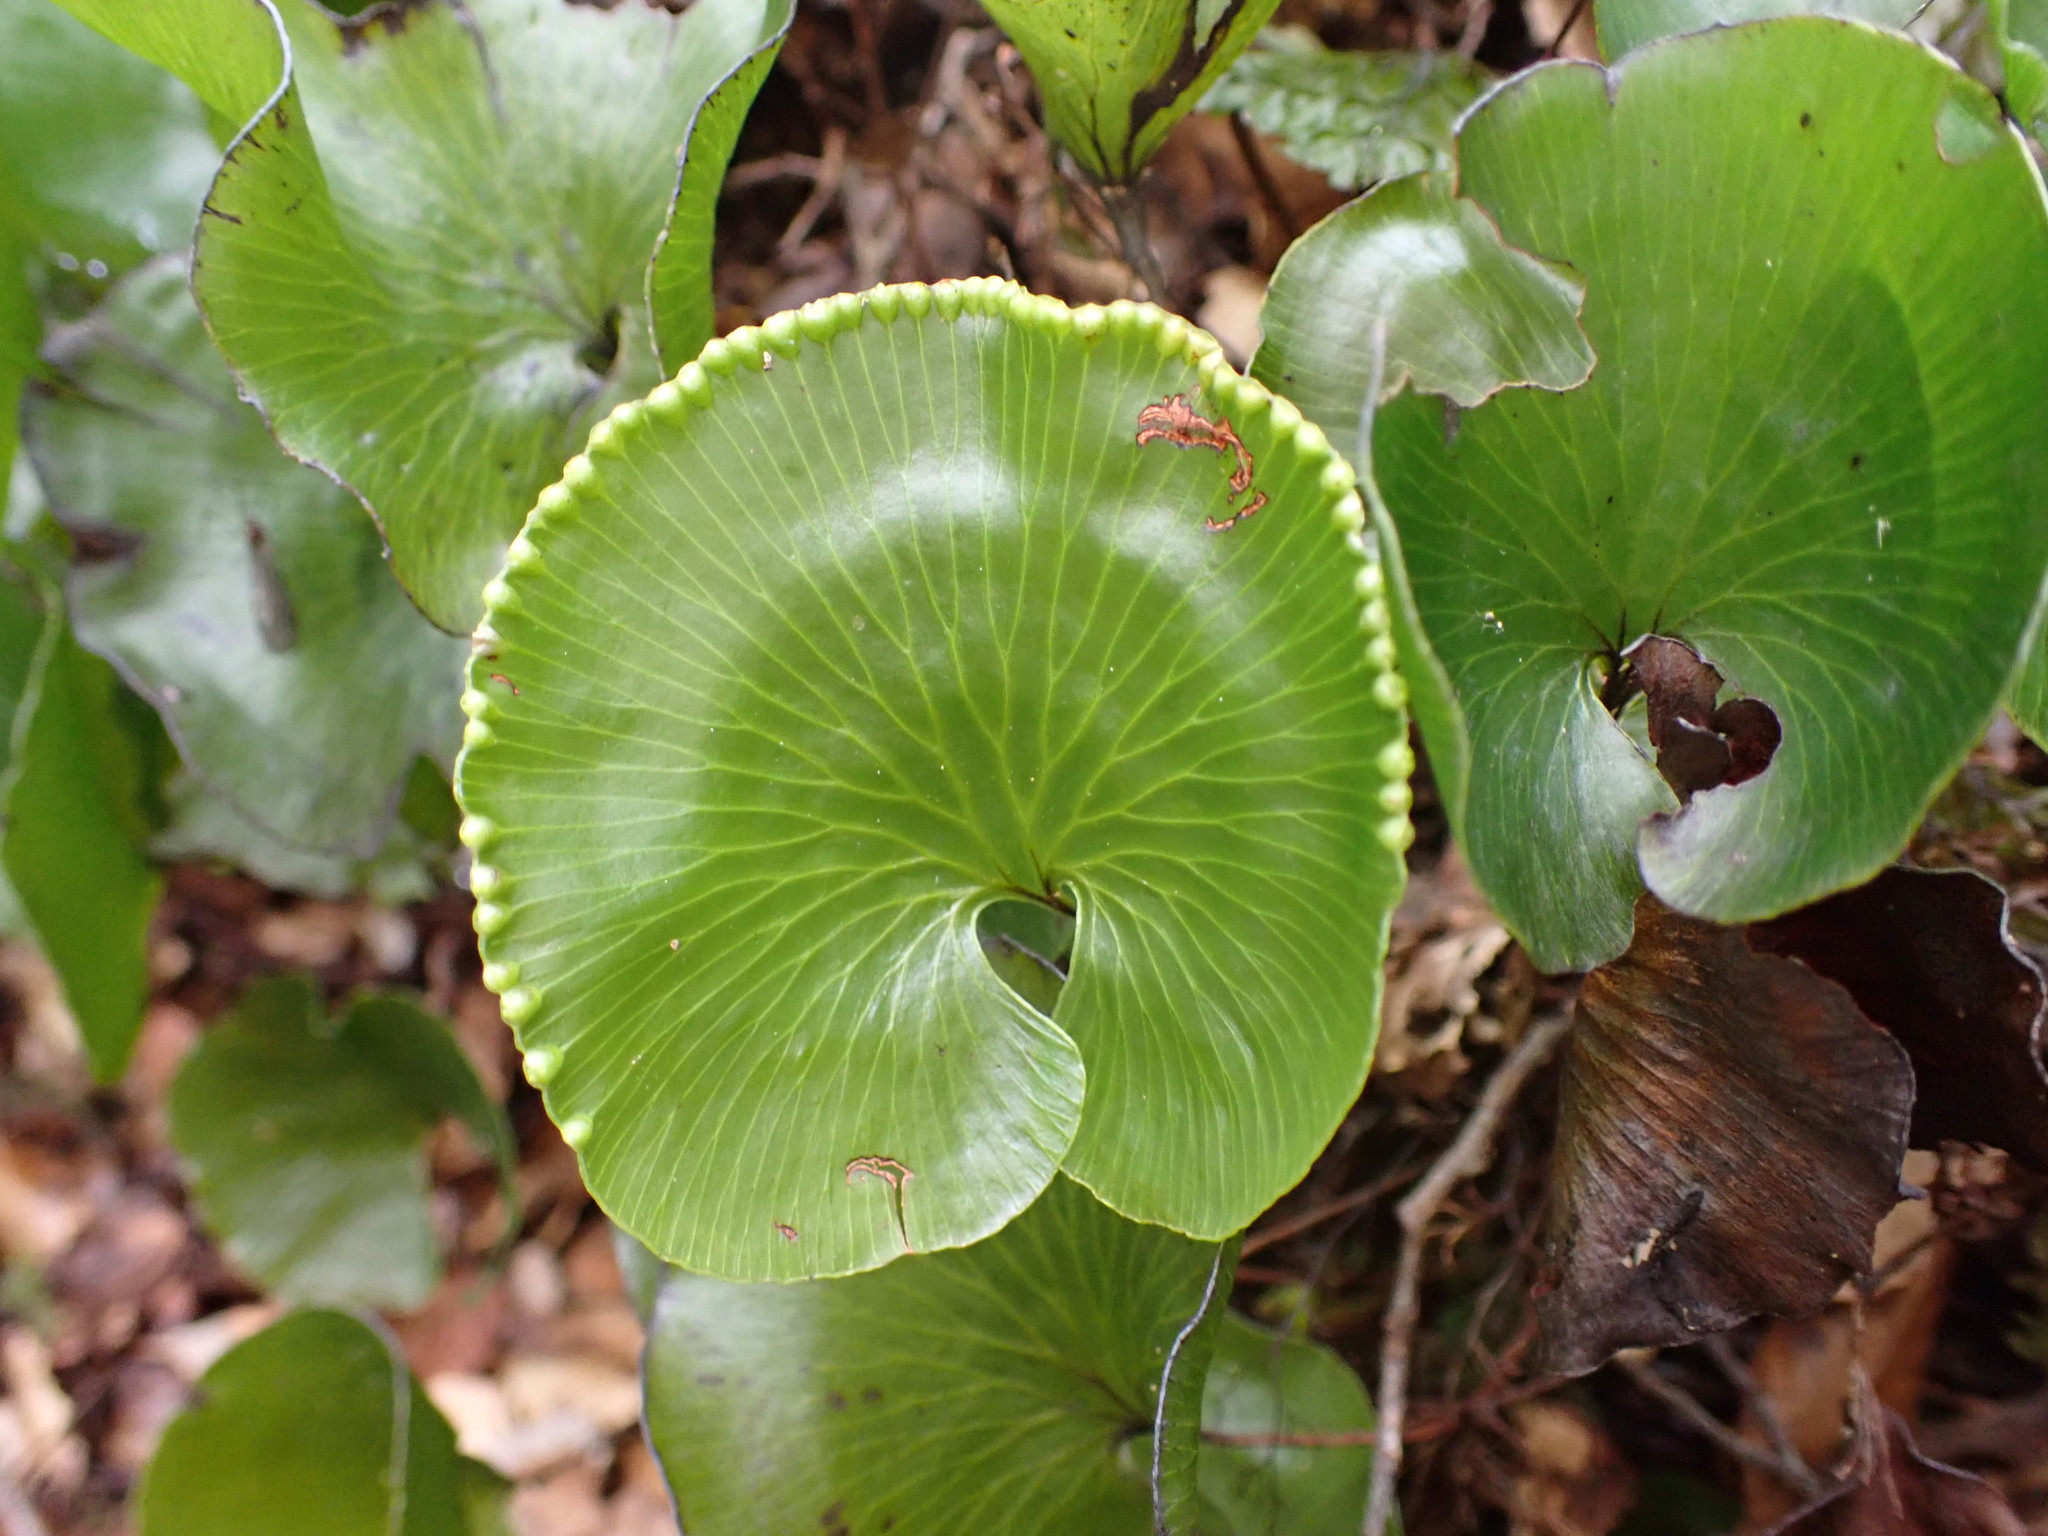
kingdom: Plantae
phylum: Tracheophyta
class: Polypodiopsida
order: Hymenophyllales
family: Hymenophyllaceae
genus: Hymenophyllum
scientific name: Hymenophyllum nephrophyllum
